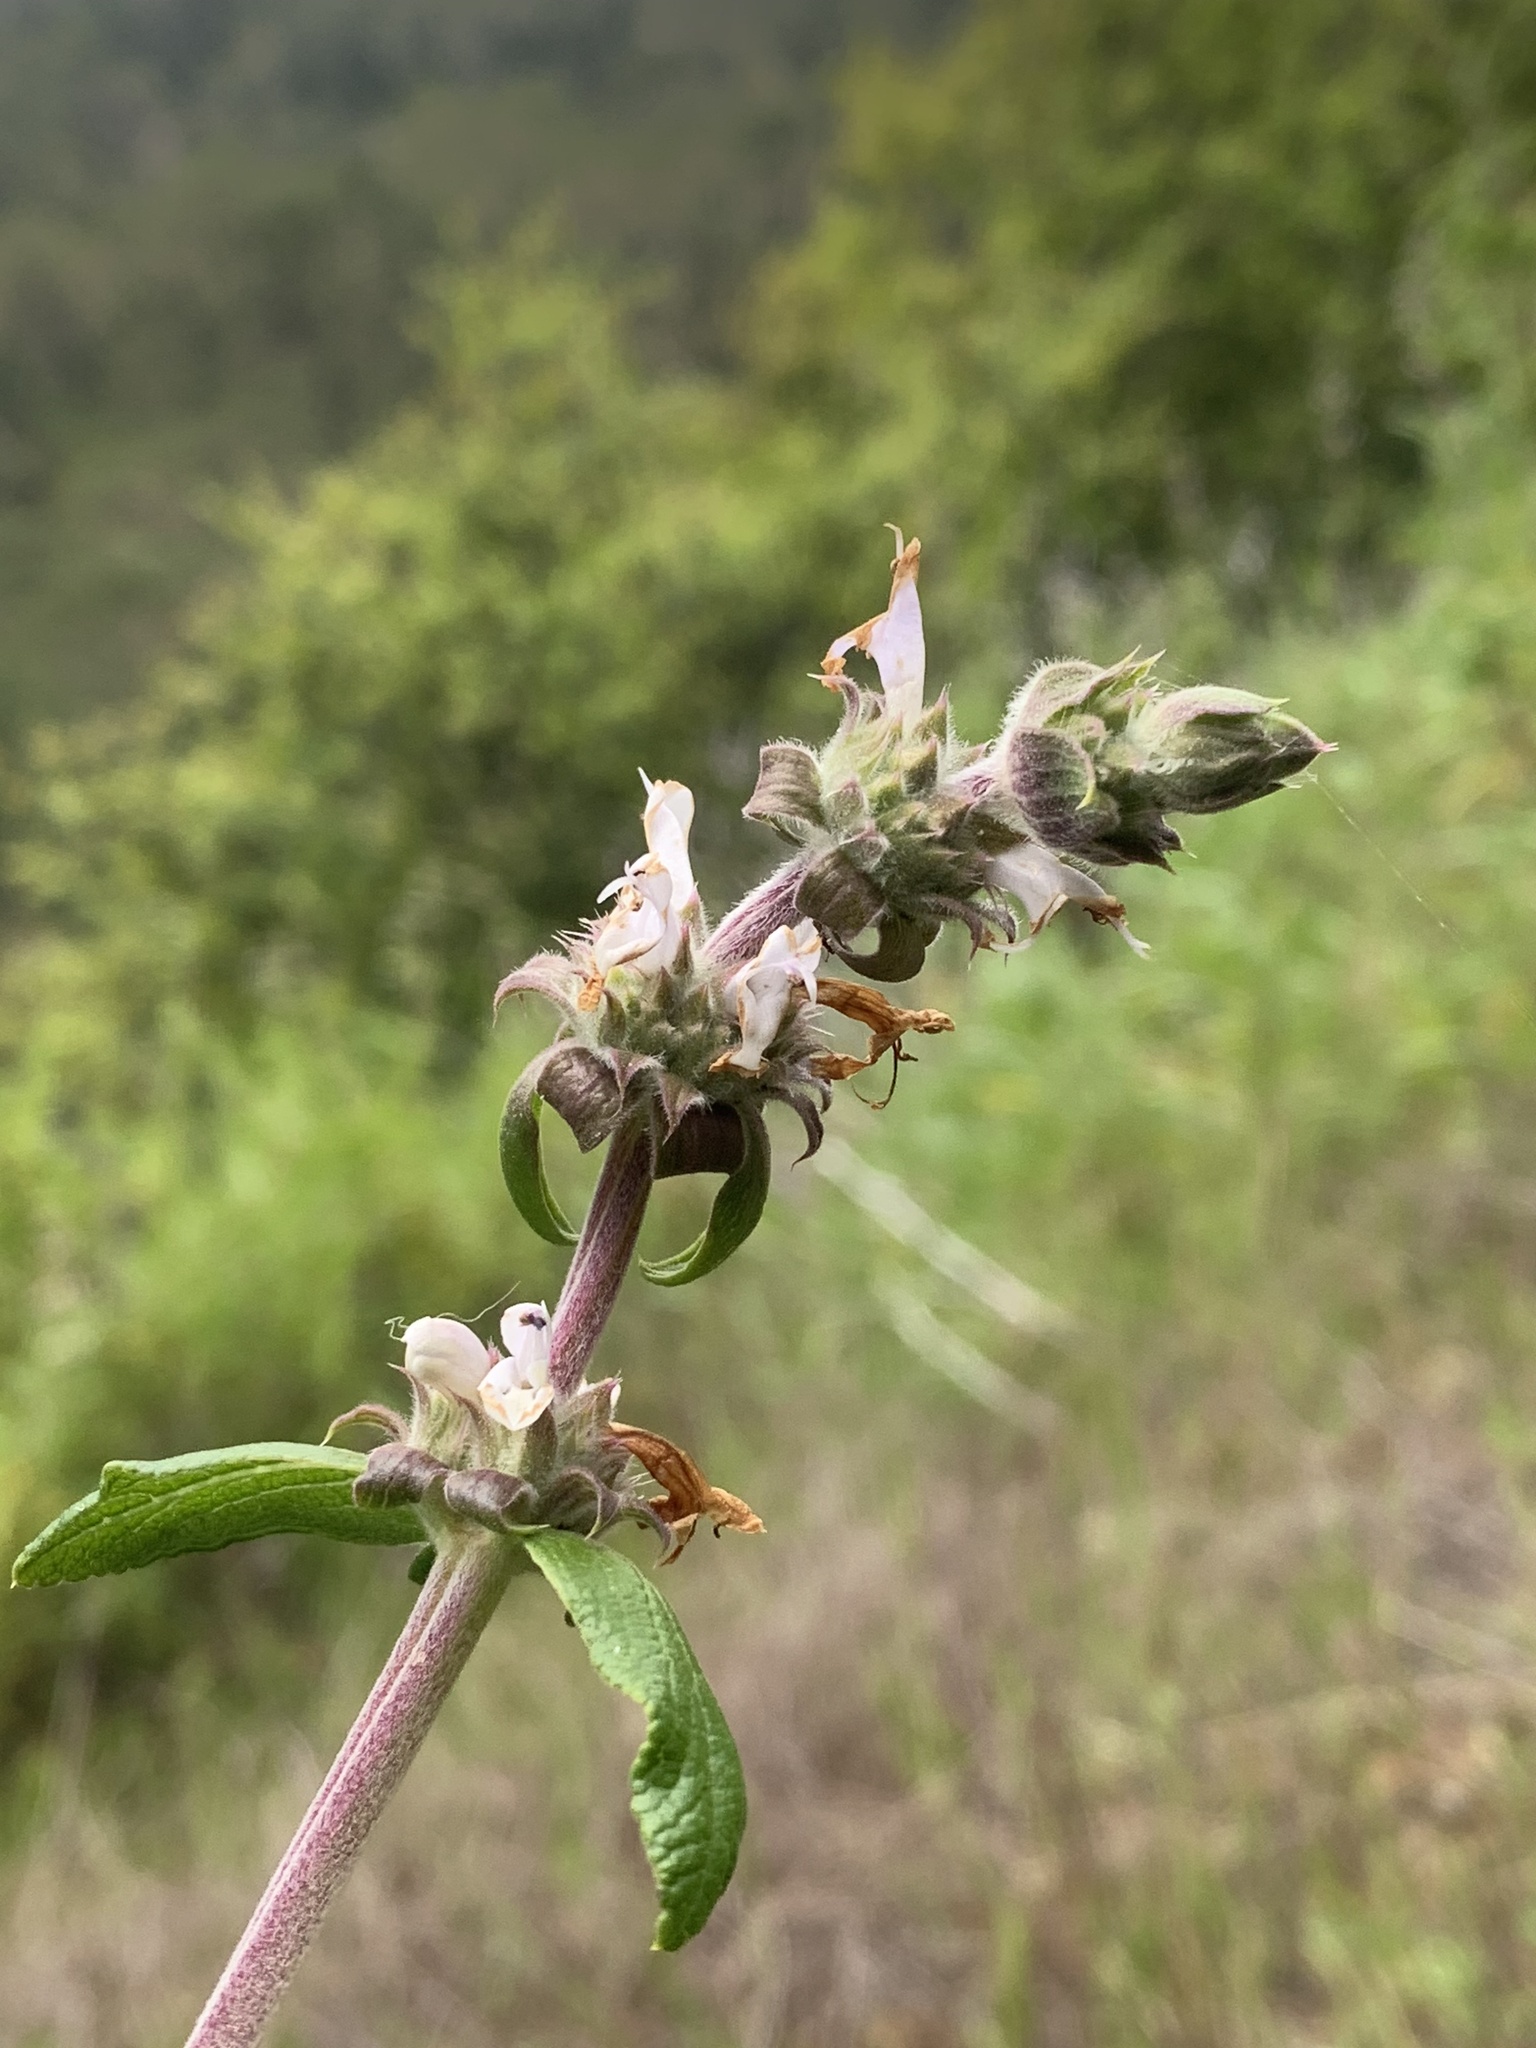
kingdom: Plantae
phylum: Tracheophyta
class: Magnoliopsida
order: Lamiales
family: Lamiaceae
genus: Salvia
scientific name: Salvia mellifera
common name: Black sage
